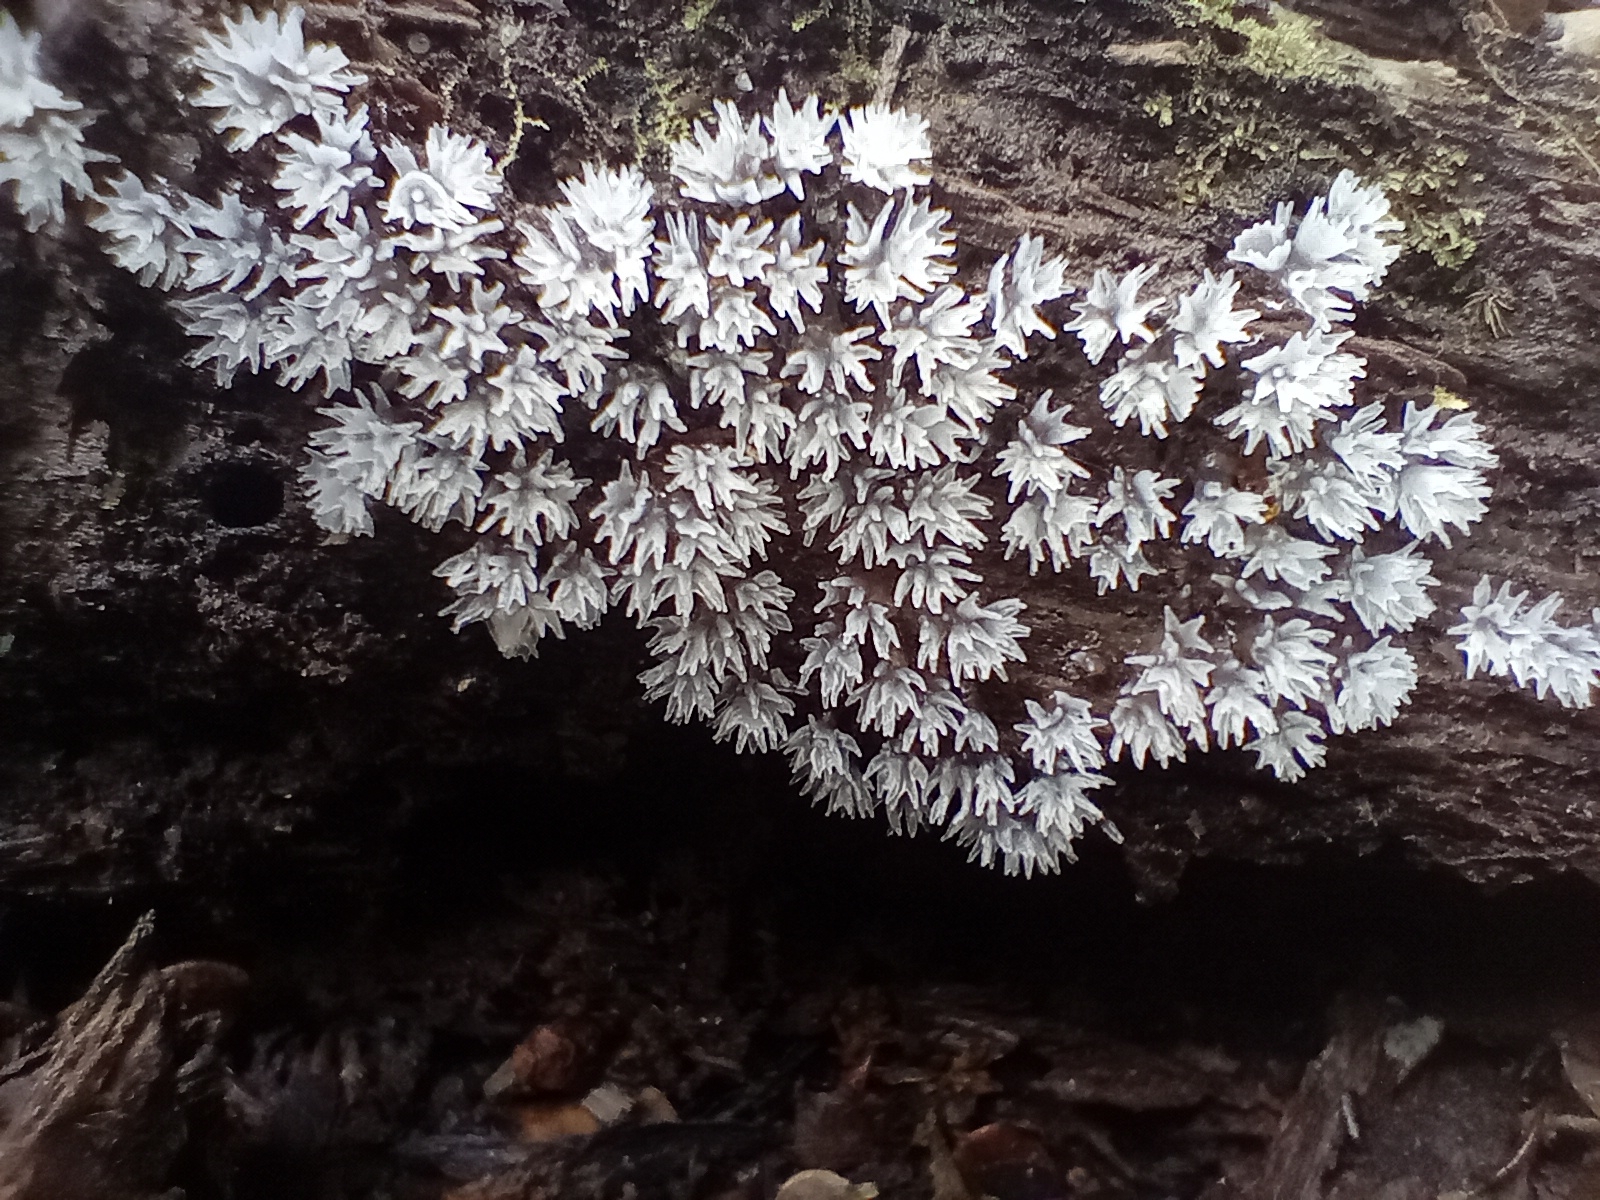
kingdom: Protozoa
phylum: Mycetozoa
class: Protosteliomycetes
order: Ceratiomyxales
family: Ceratiomyxaceae
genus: Ceratiomyxa
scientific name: Ceratiomyxa fruticulosa
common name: Honeycomb coral slime mold
